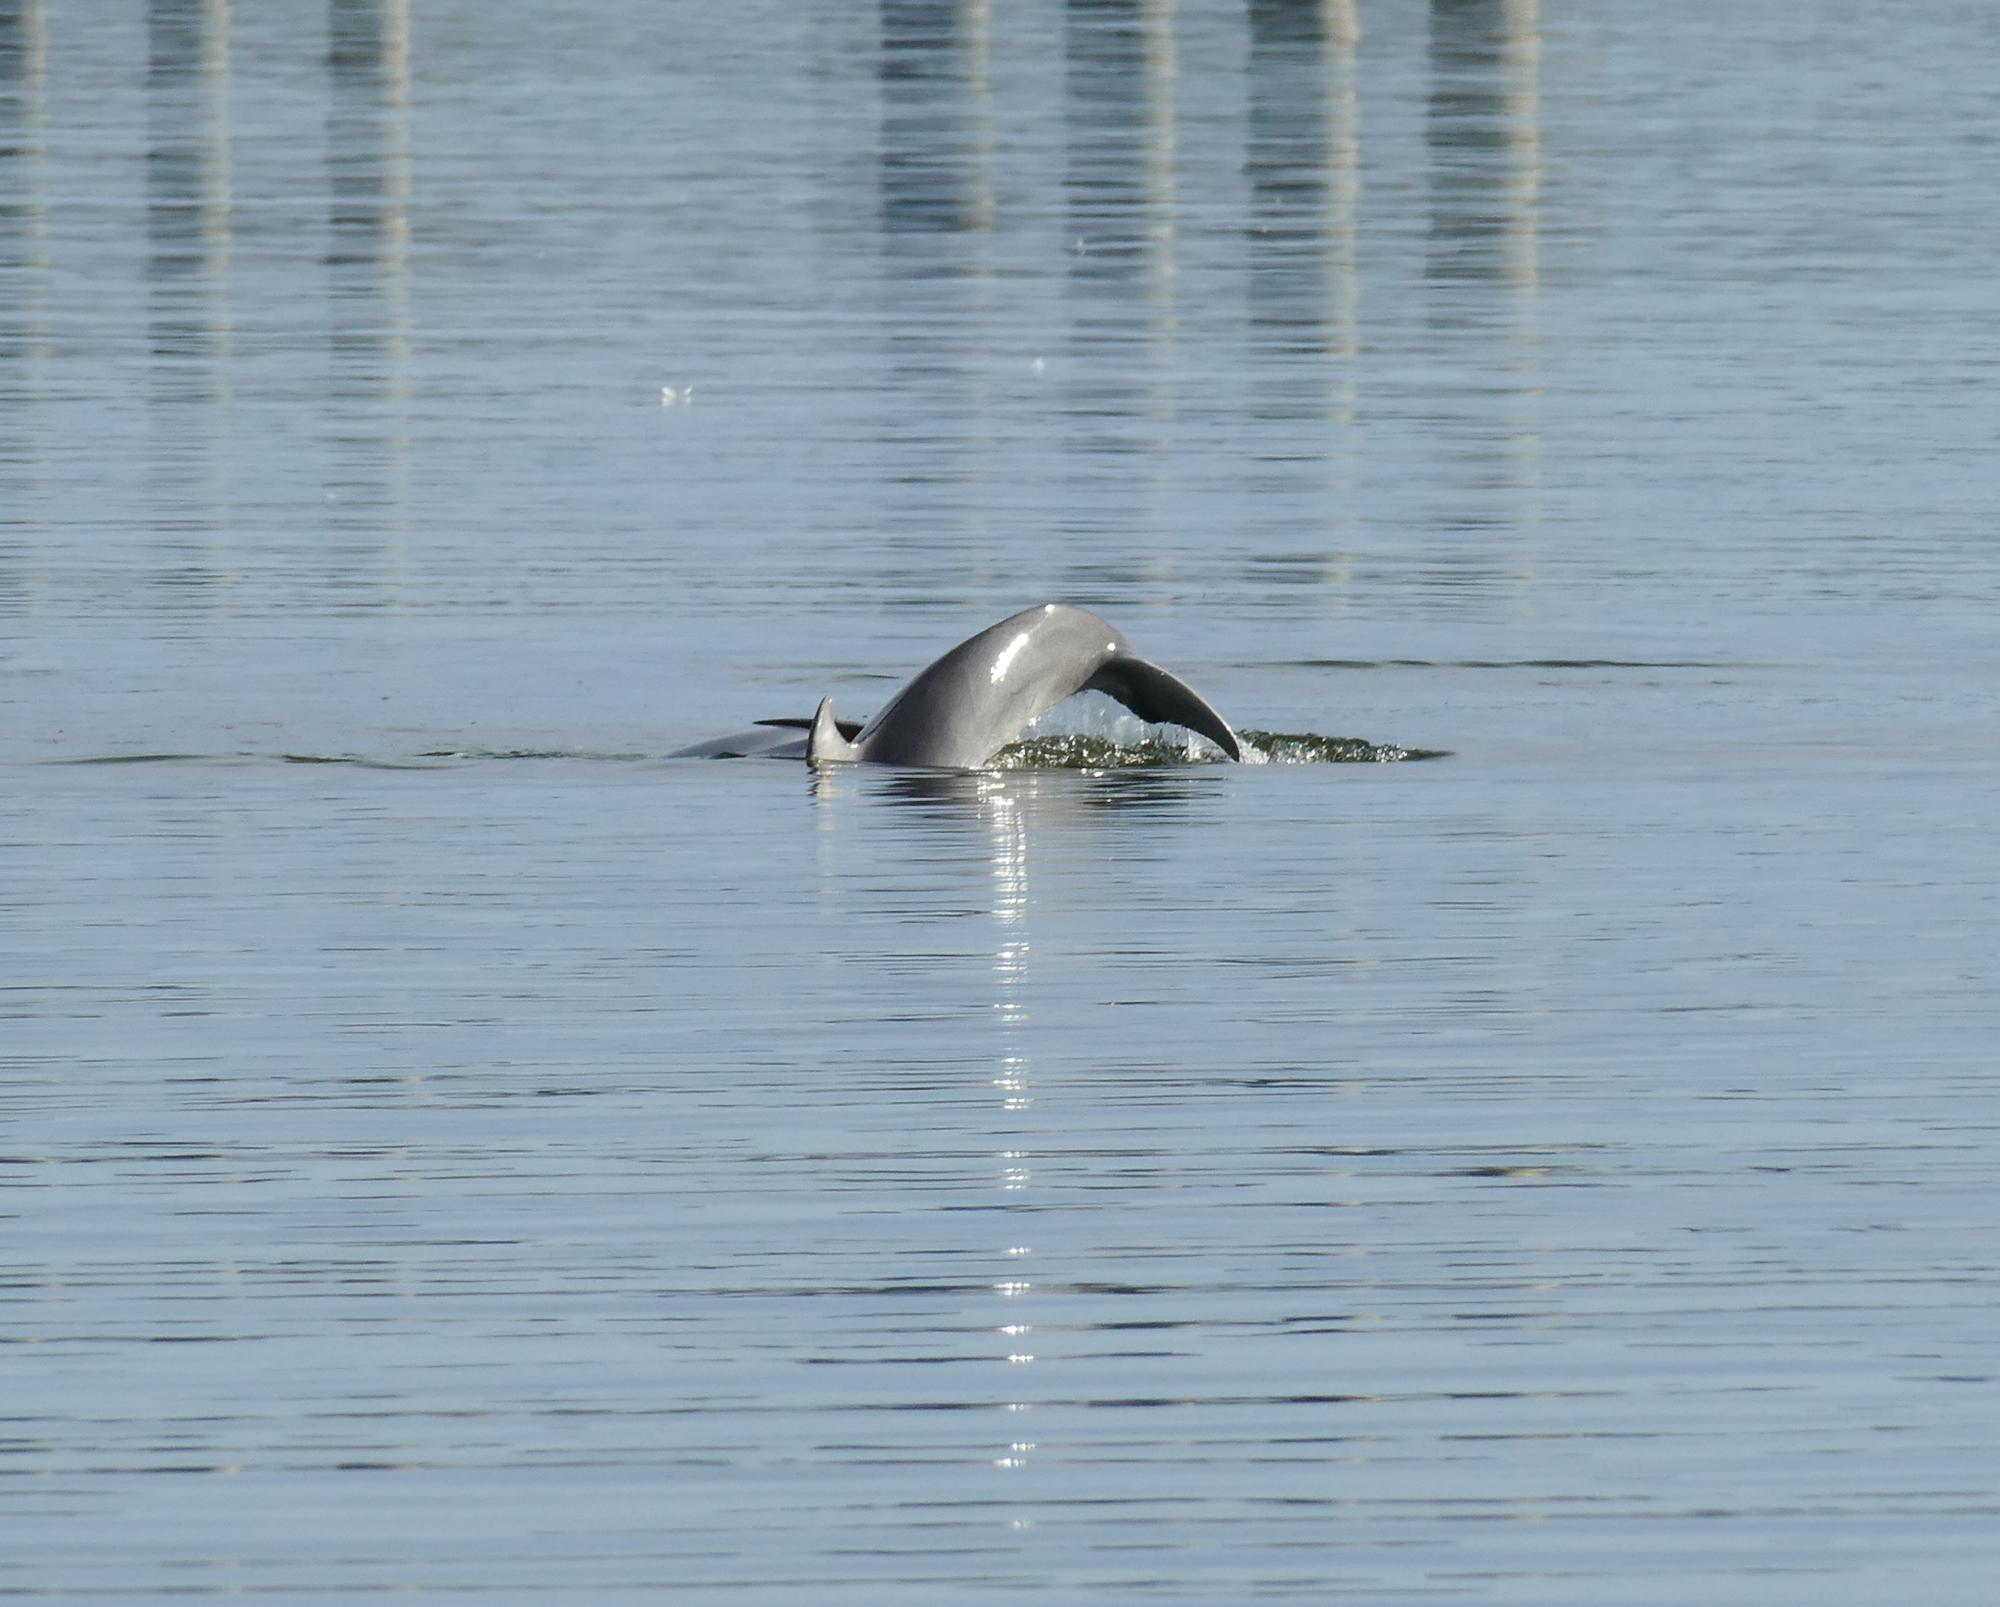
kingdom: Animalia
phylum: Chordata
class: Mammalia
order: Cetacea
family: Delphinidae
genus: Tursiops
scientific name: Tursiops truncatus
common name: Bottlenose dolphin
